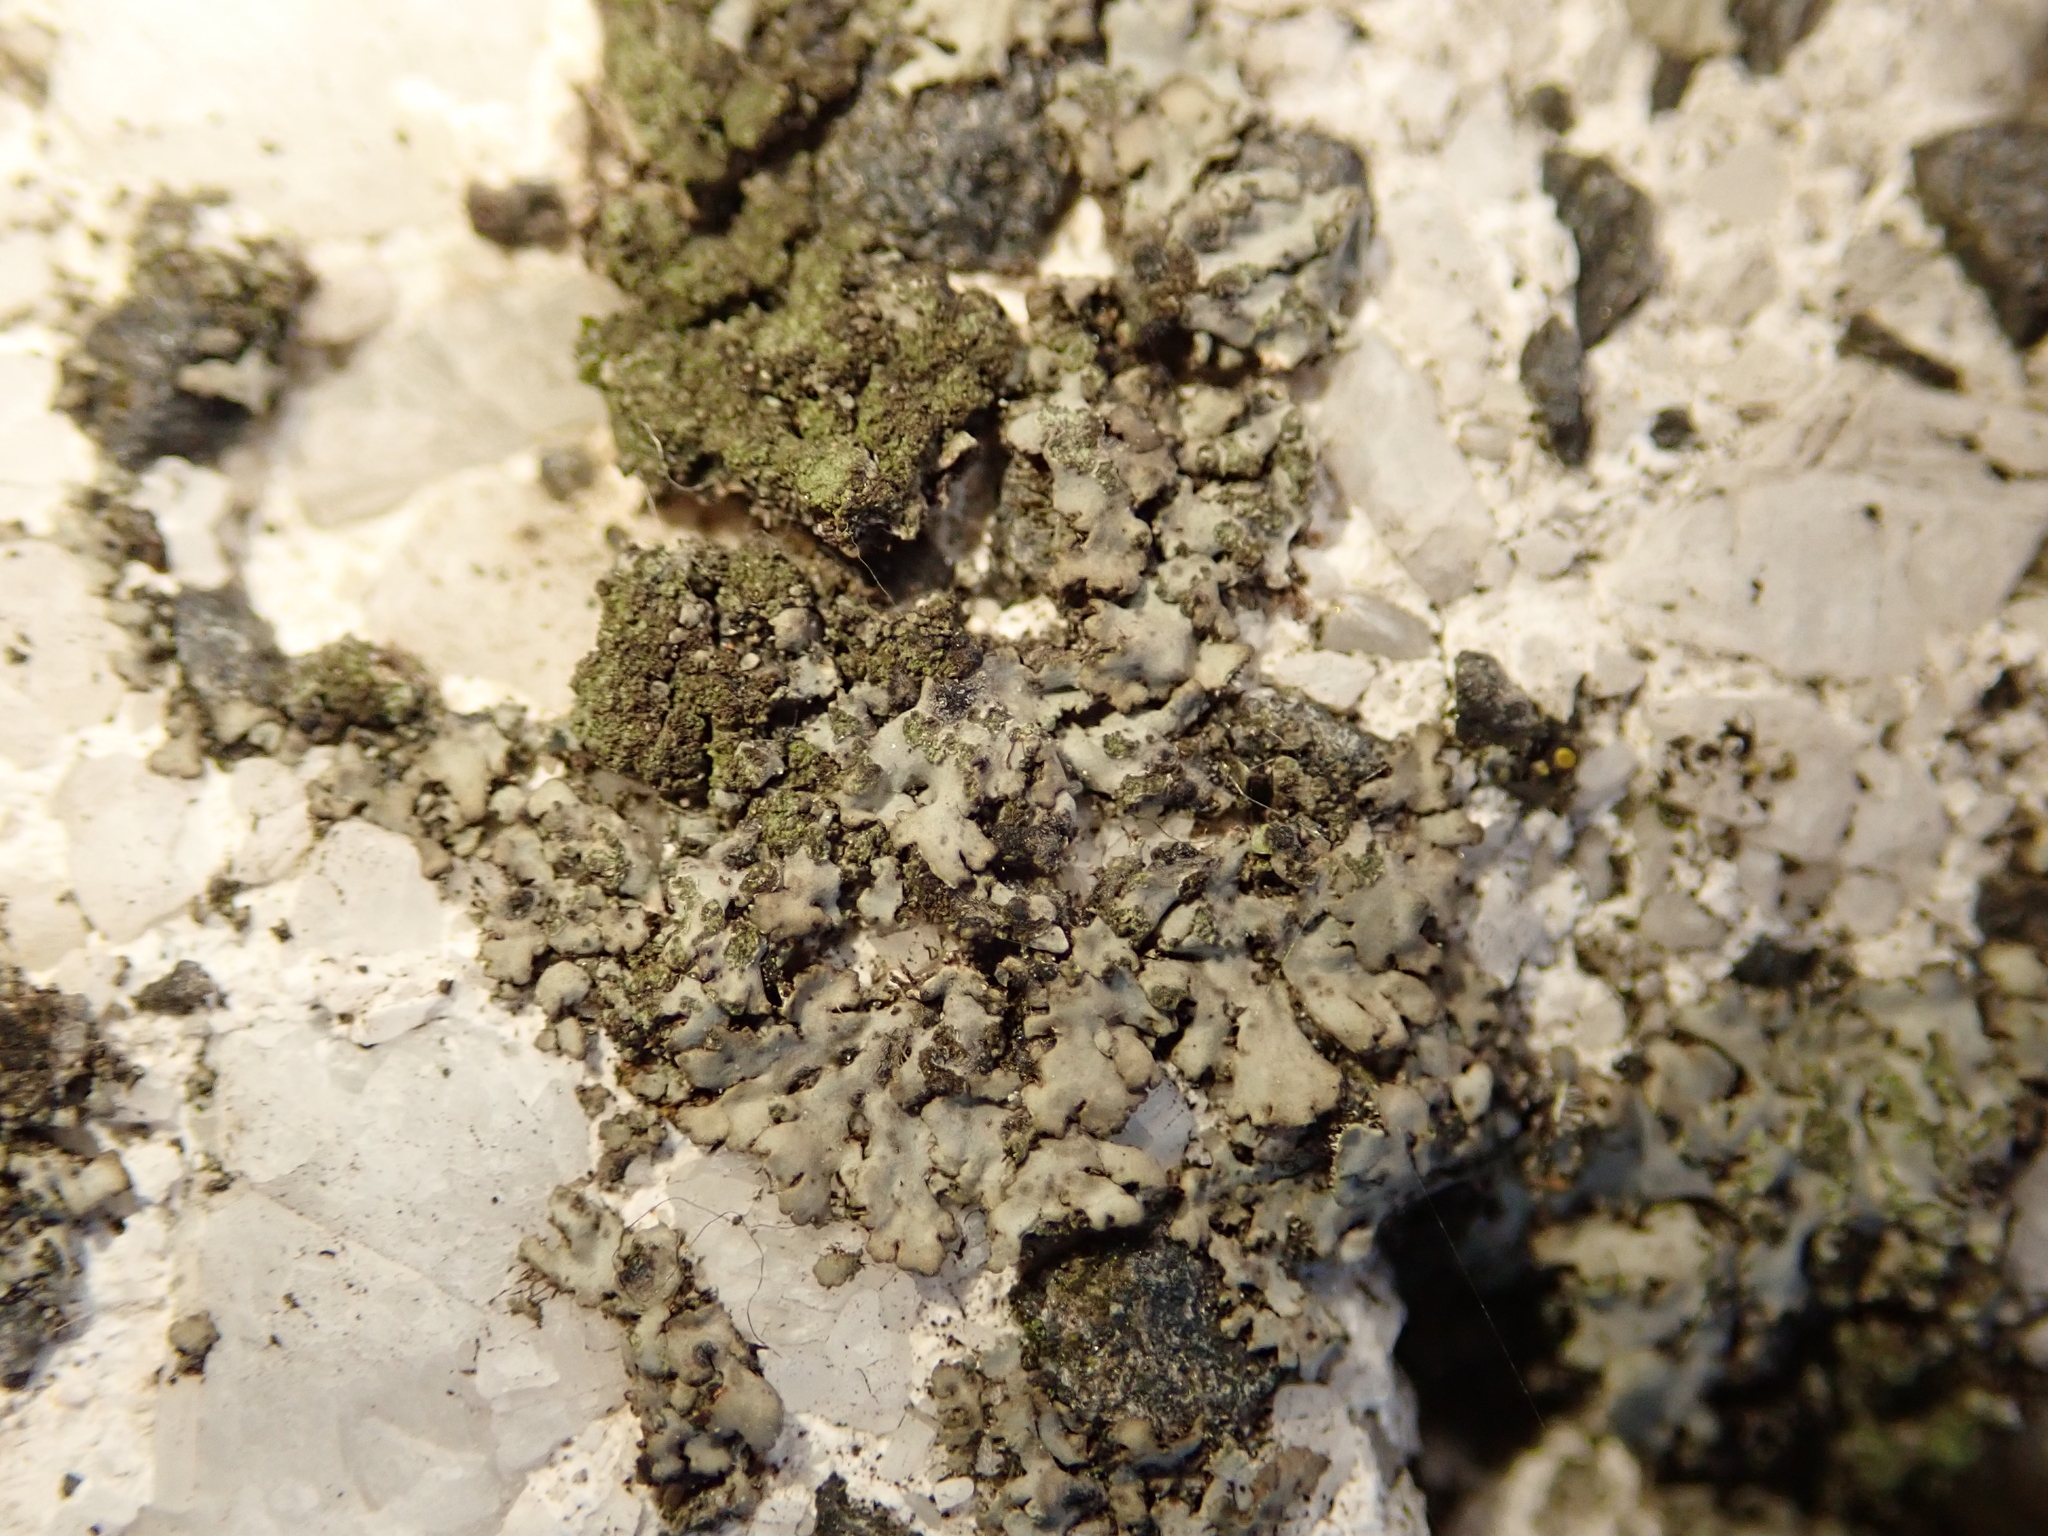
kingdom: Fungi
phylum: Ascomycota
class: Lecanoromycetes
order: Caliciales
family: Physciaceae
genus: Phaeophyscia
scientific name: Phaeophyscia orbicularis
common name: Mealy shadow lichen
